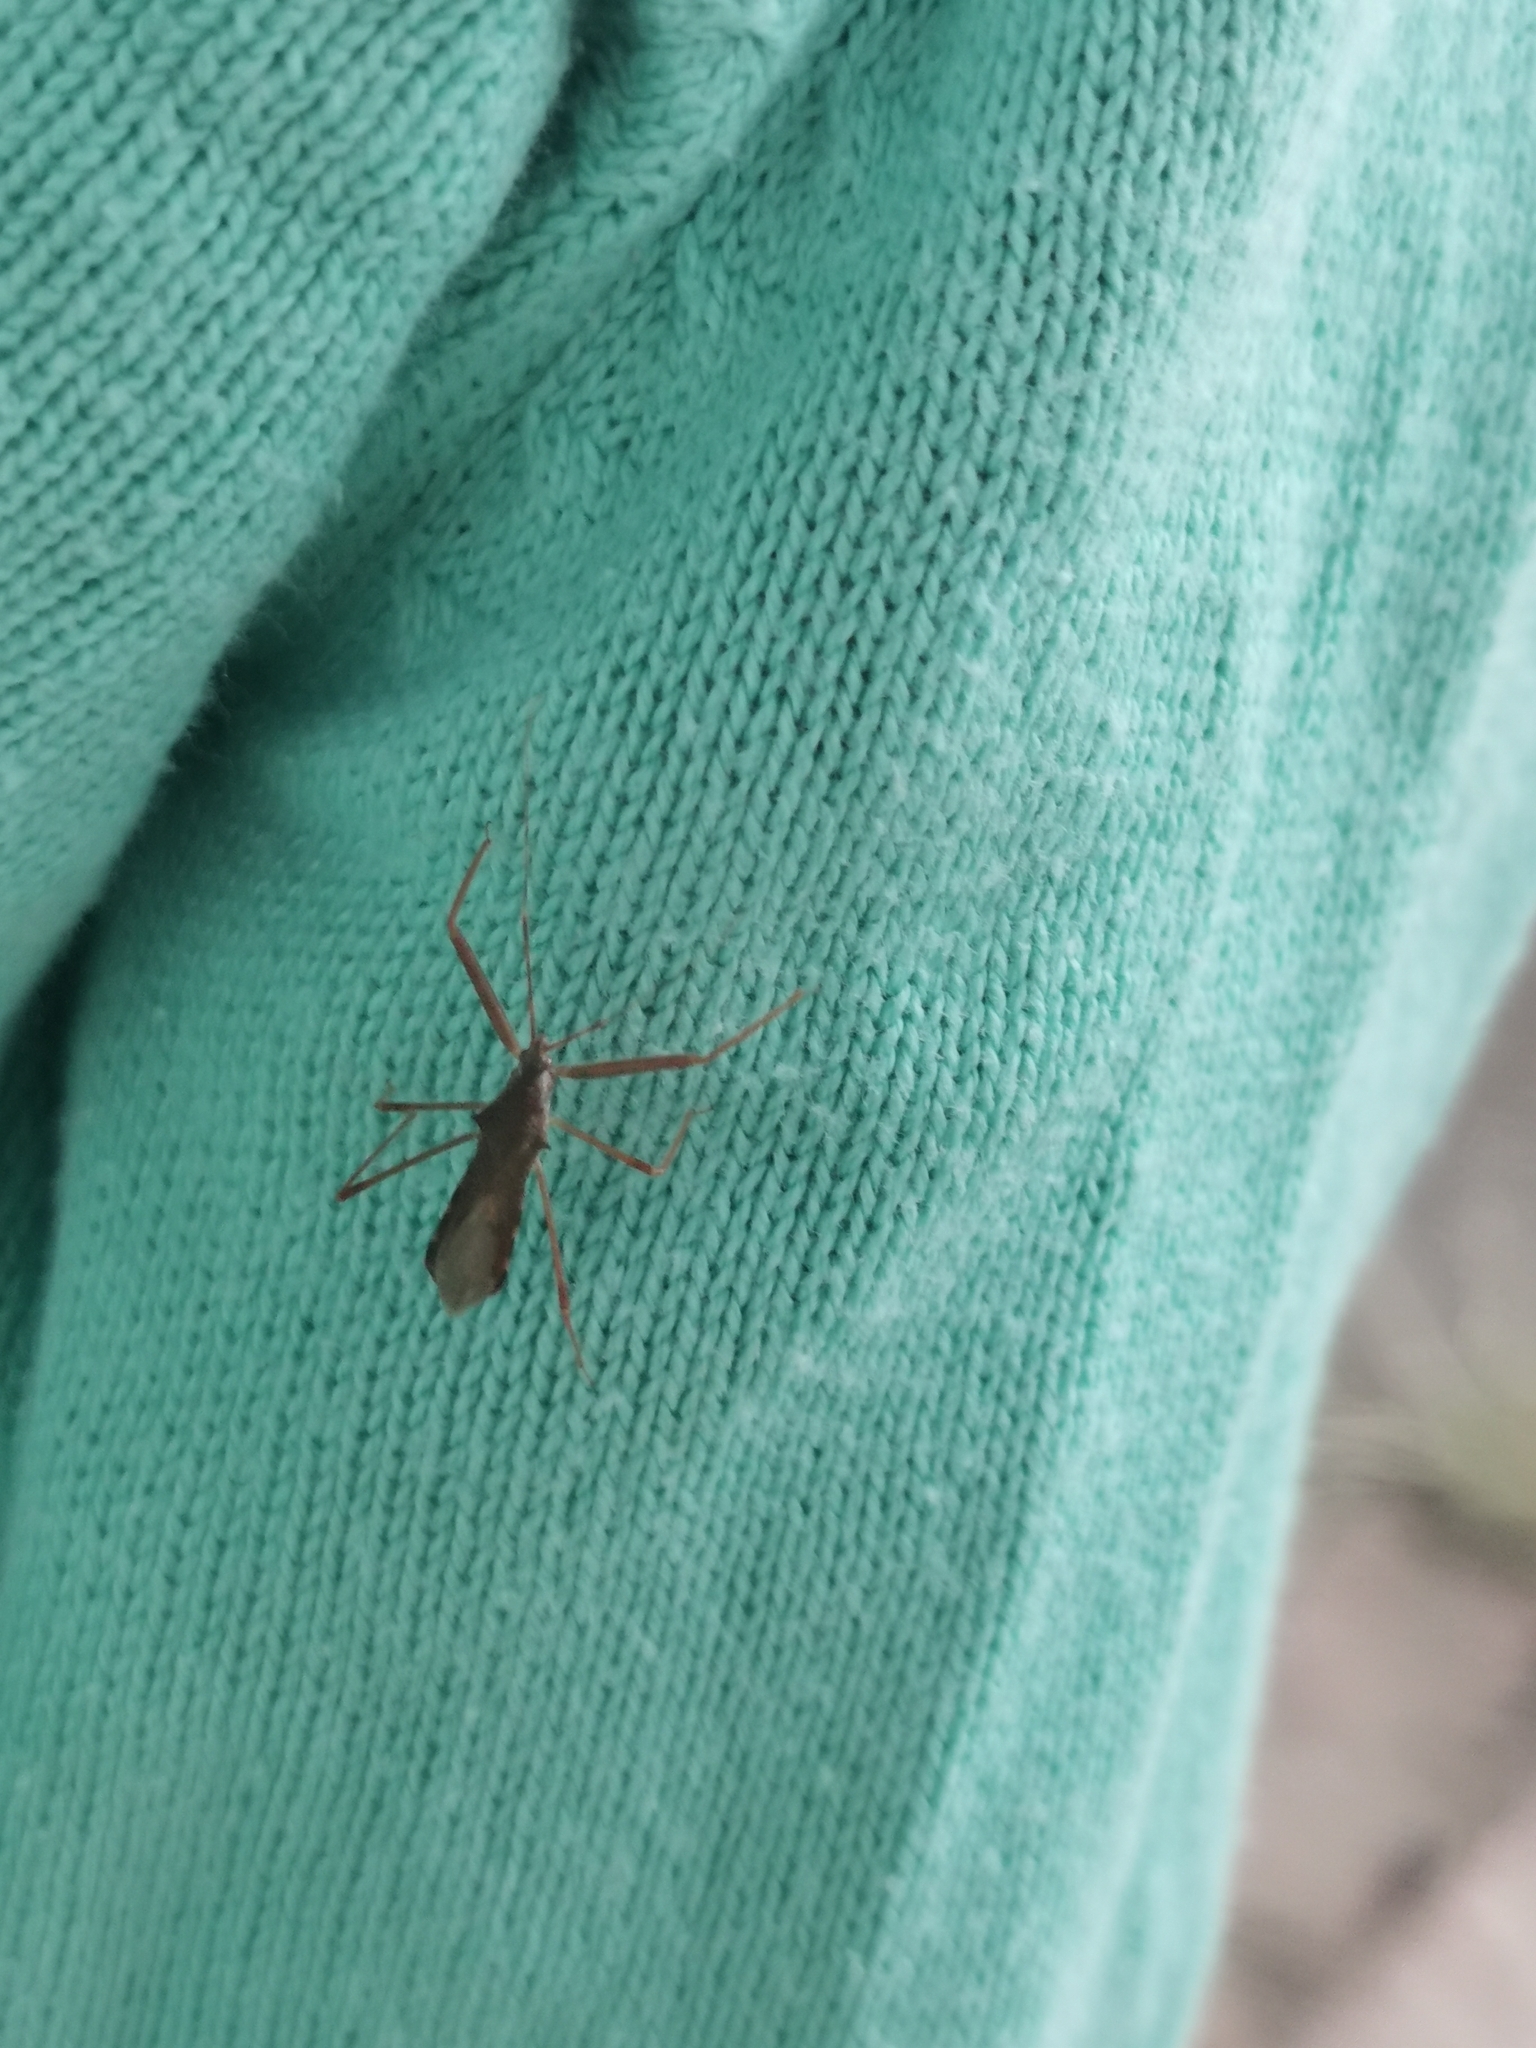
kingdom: Animalia
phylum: Arthropoda
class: Insecta
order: Hemiptera
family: Reduviidae
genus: Nagusta
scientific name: Nagusta goedelii
